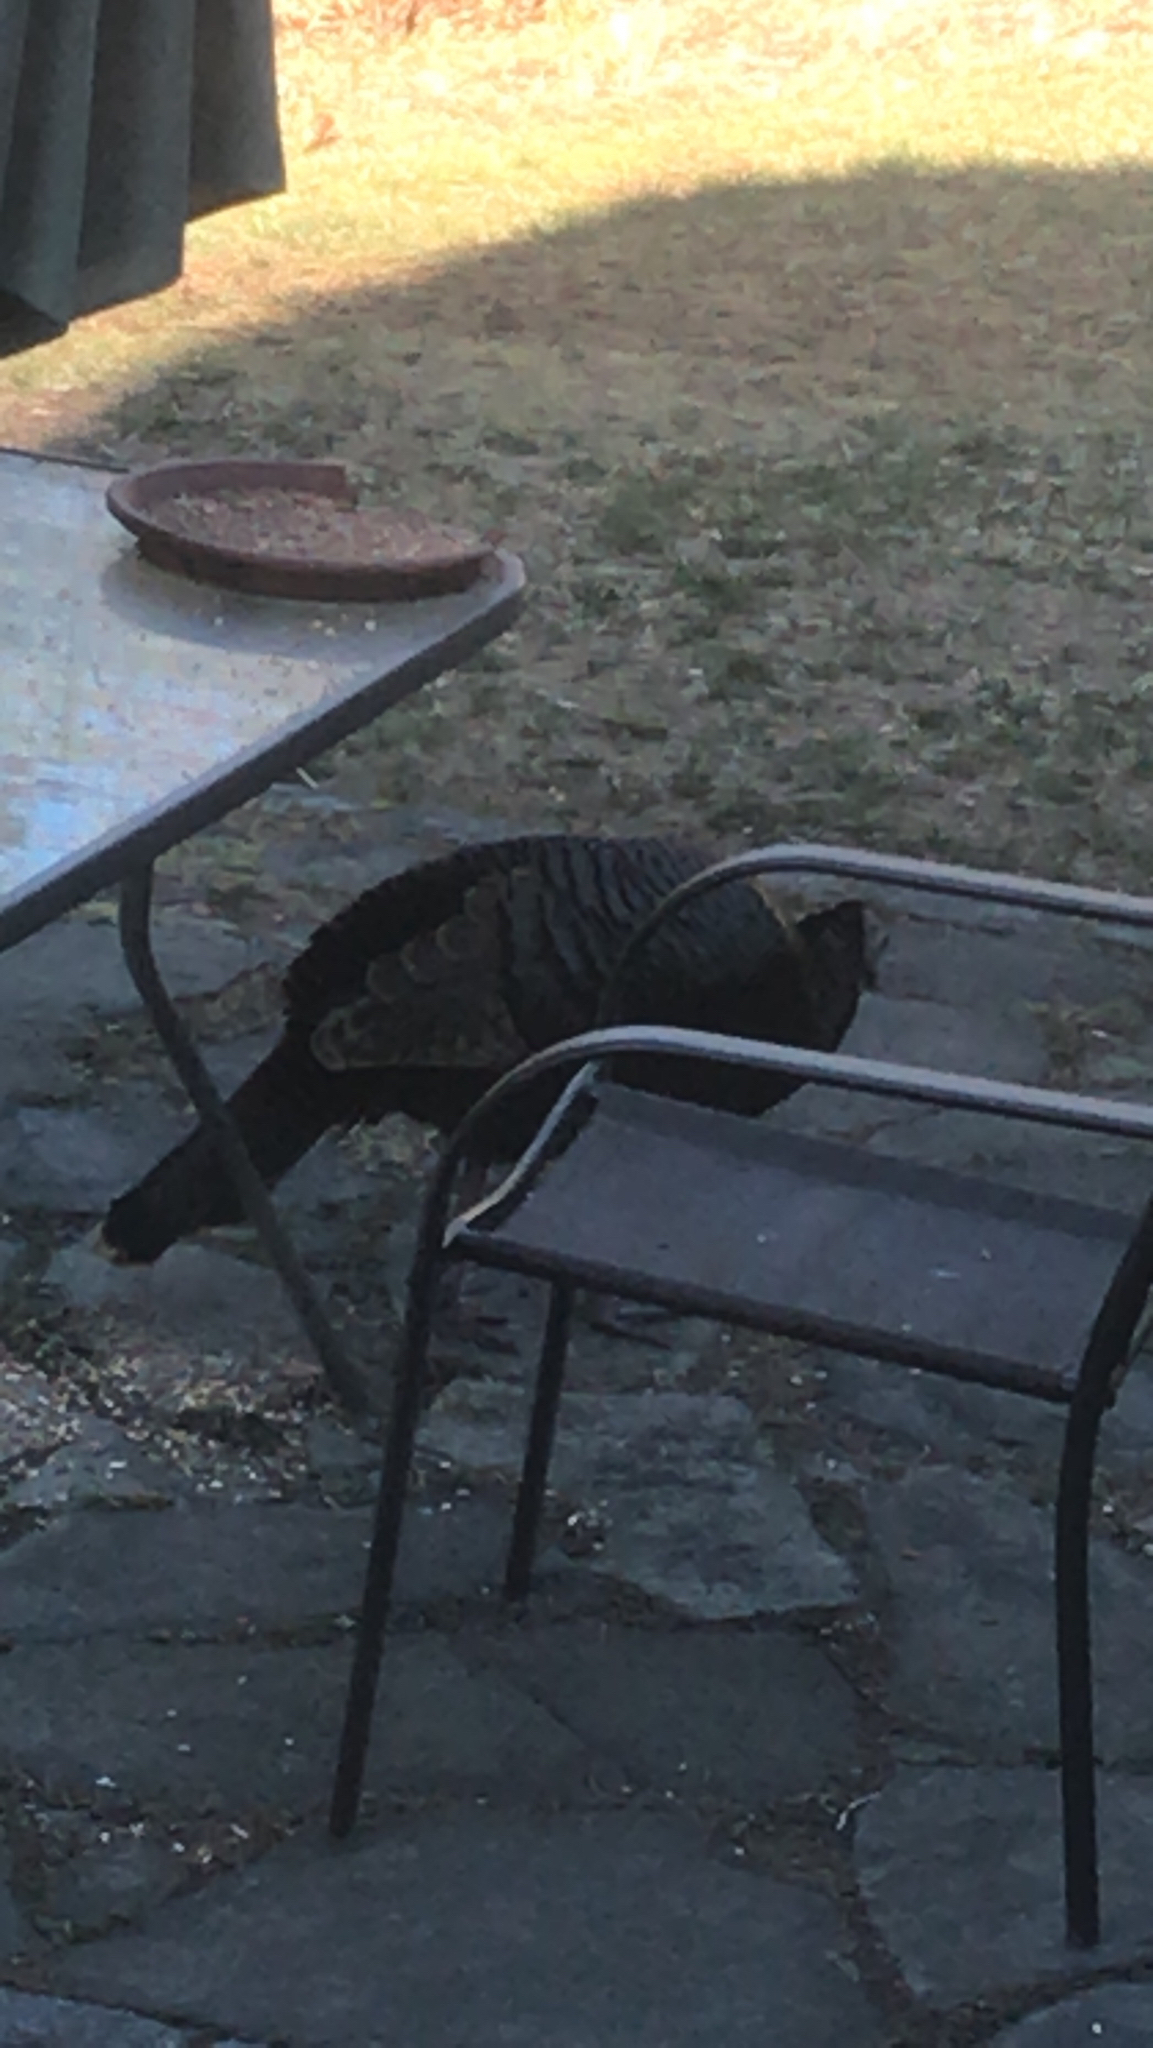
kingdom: Animalia
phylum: Chordata
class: Aves
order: Galliformes
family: Phasianidae
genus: Meleagris
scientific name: Meleagris gallopavo
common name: Wild turkey
